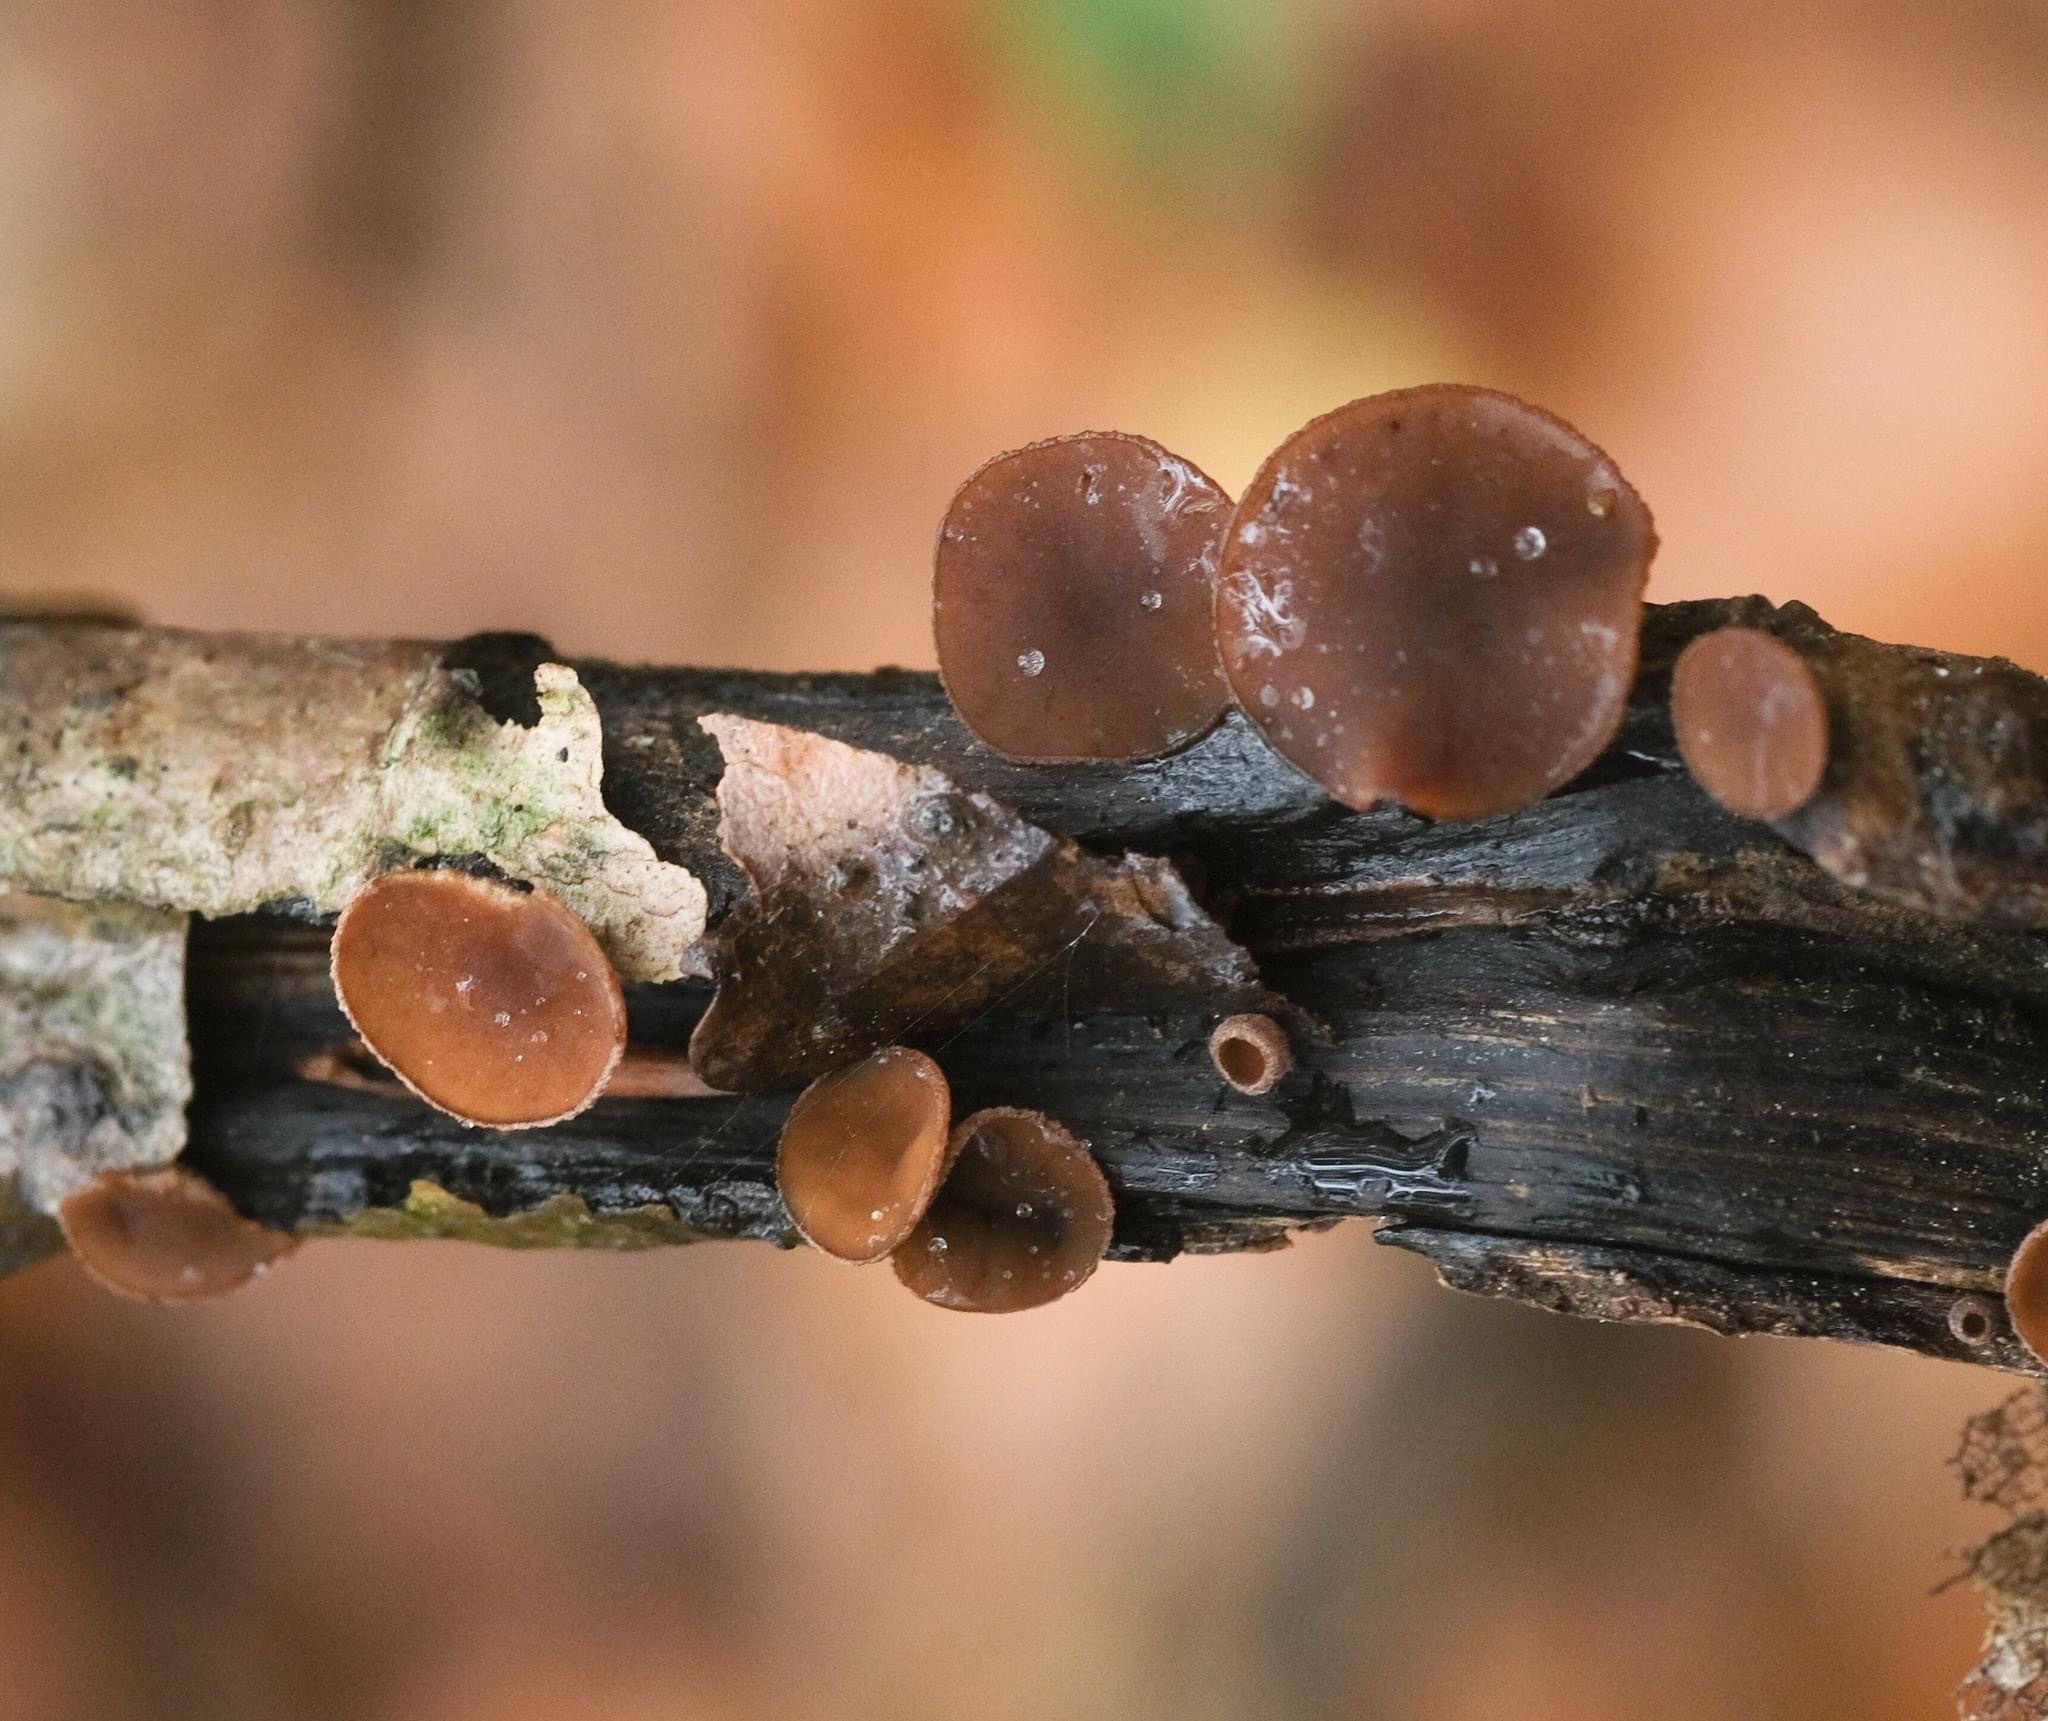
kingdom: Fungi
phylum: Ascomycota
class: Leotiomycetes
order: Helotiales
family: Rutstroemiaceae
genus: Rutstroemia
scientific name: Rutstroemia firma
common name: Brown cup
